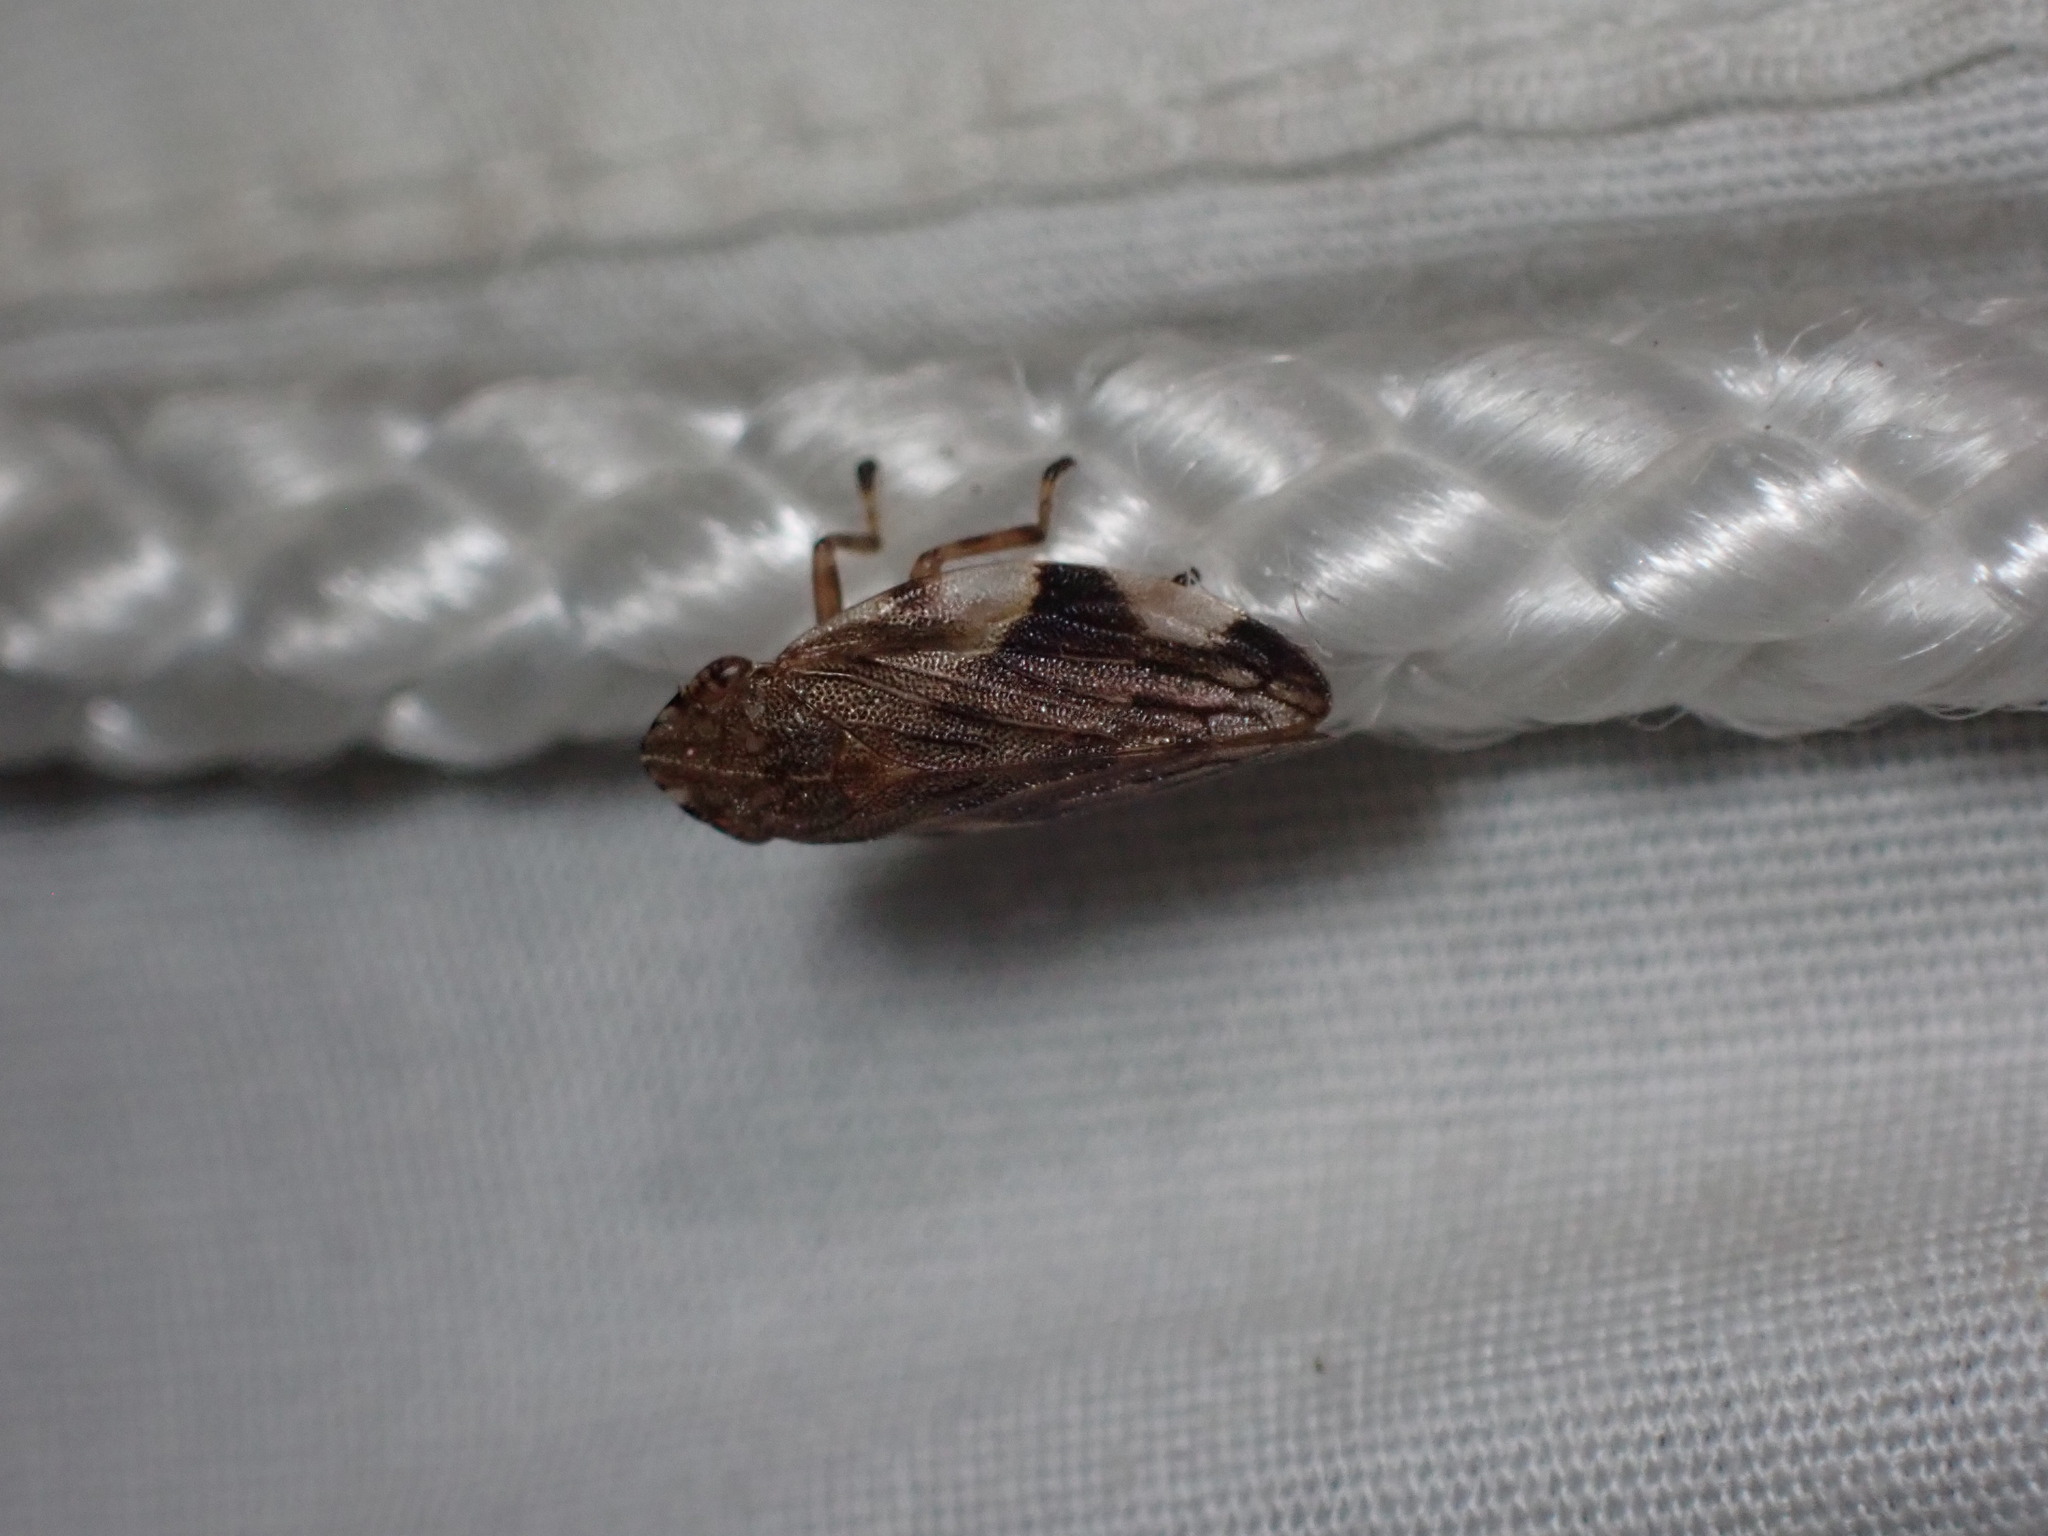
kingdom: Animalia
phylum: Arthropoda
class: Insecta
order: Hemiptera
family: Aphrophoridae
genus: Aphrophora
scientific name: Aphrophora quadrinotata
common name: Four-spotted spittlebug
